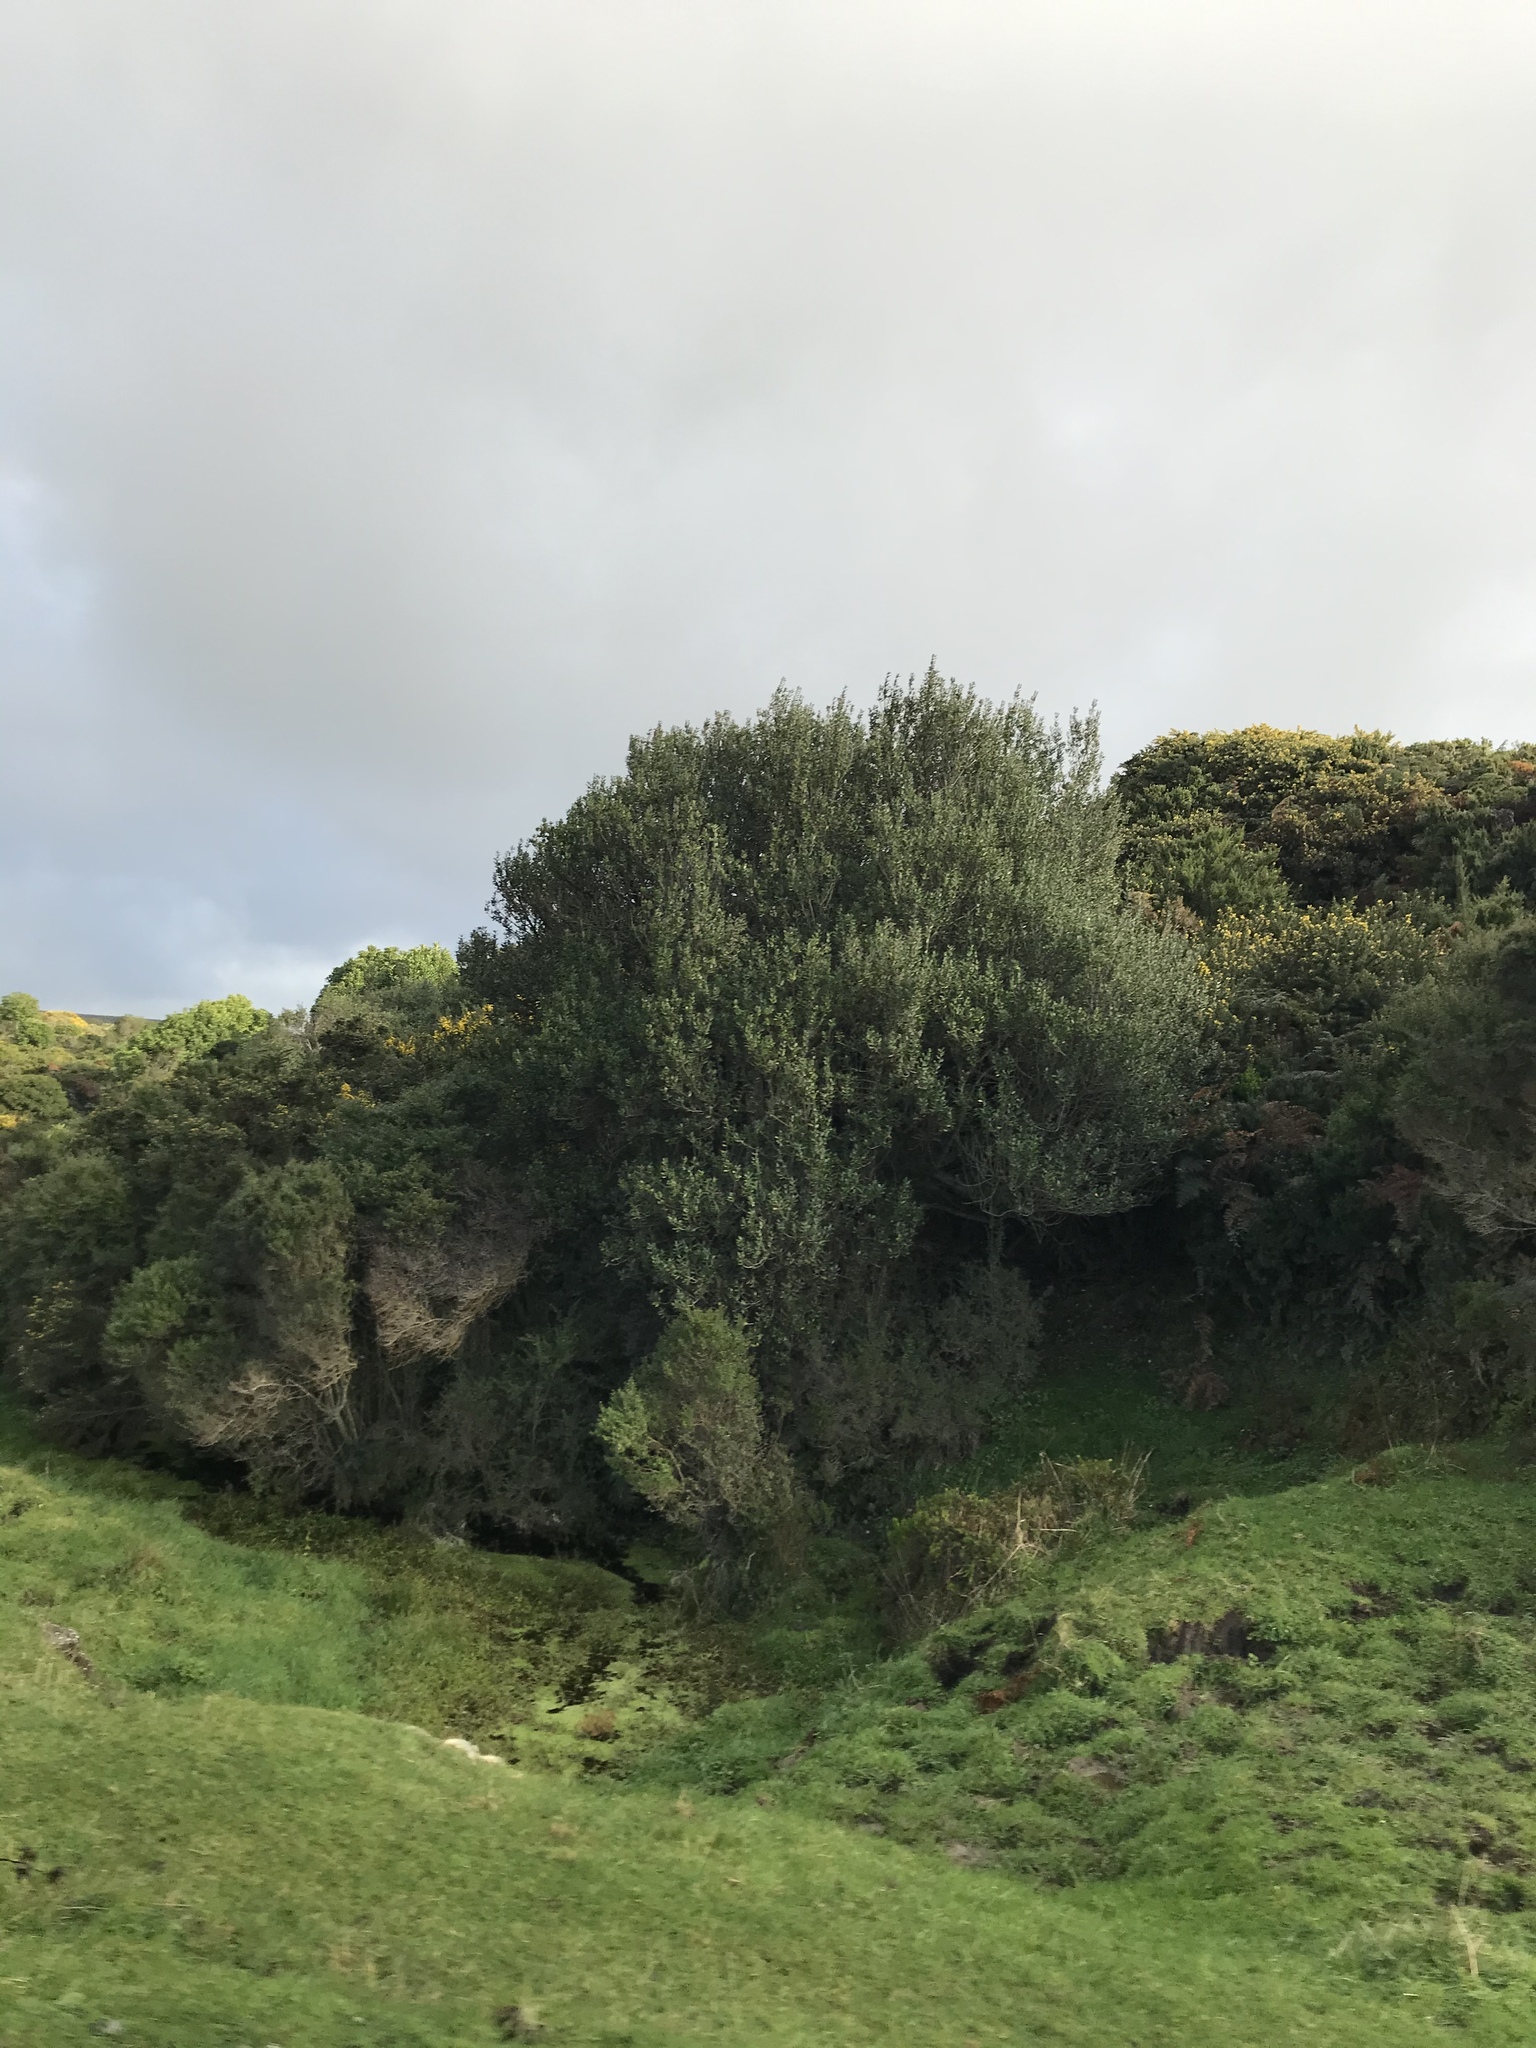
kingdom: Plantae
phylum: Tracheophyta
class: Magnoliopsida
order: Asterales
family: Asteraceae
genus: Olearia
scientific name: Olearia traversiorum
